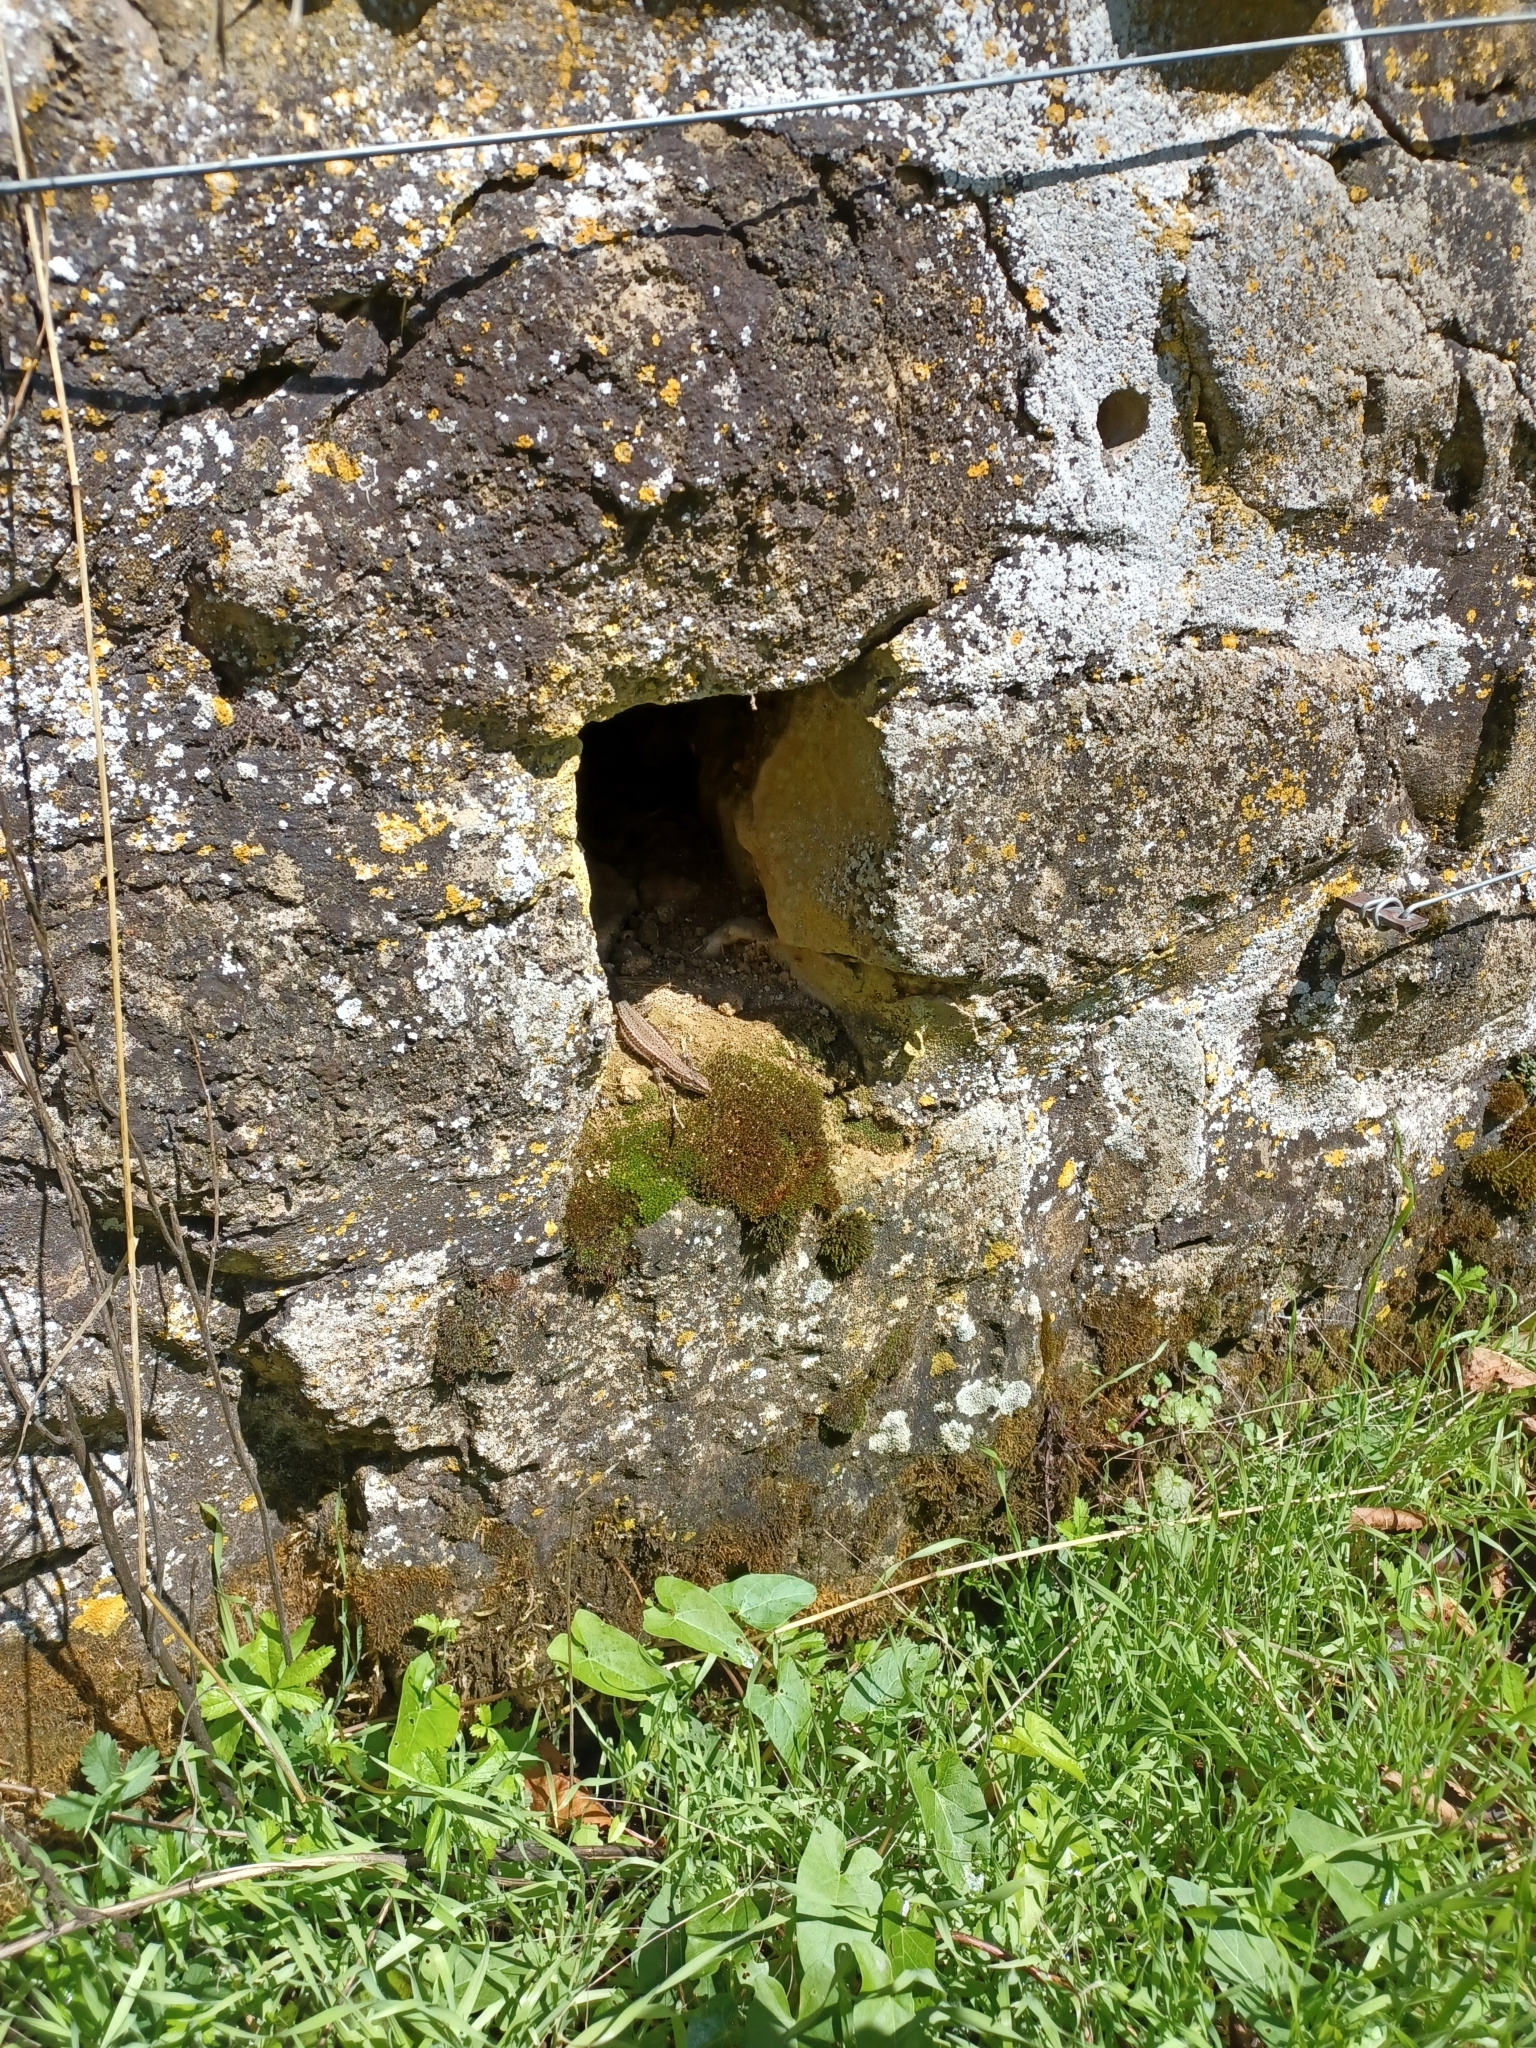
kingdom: Animalia
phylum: Chordata
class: Squamata
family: Lacertidae
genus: Podarcis
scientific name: Podarcis muralis
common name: Common wall lizard
